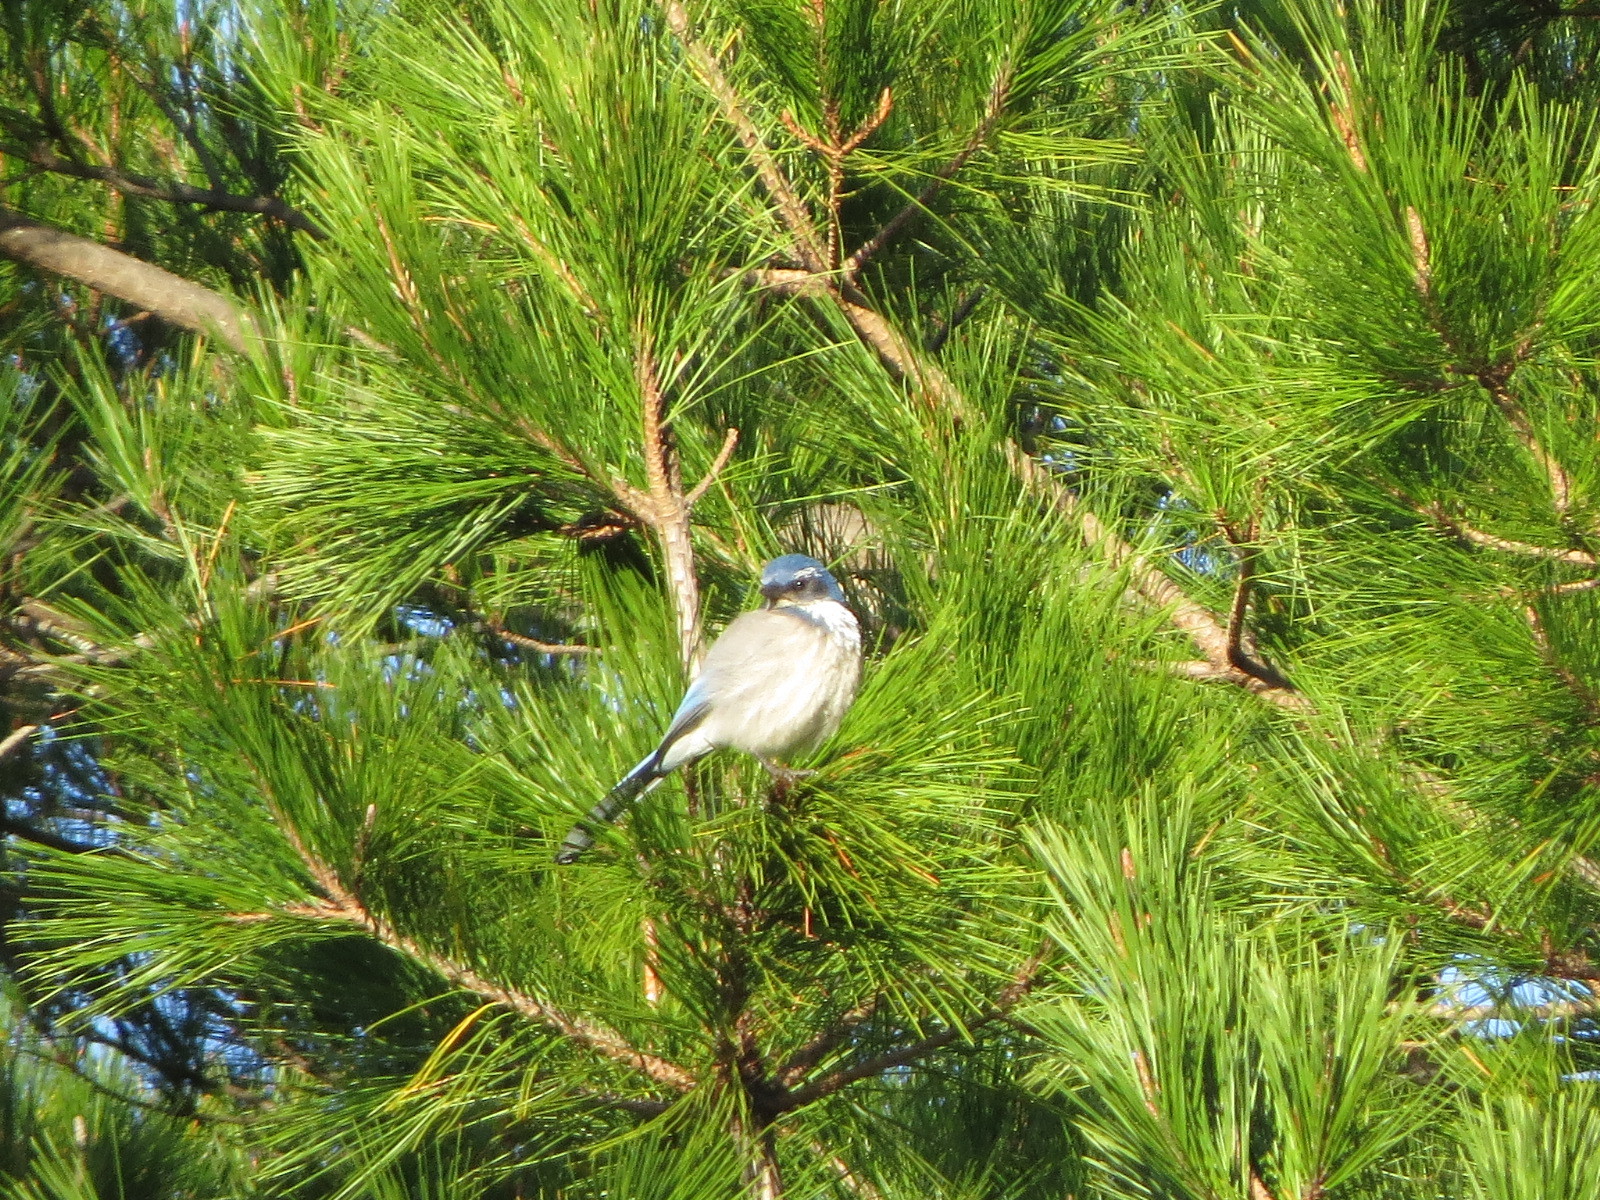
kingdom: Animalia
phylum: Chordata
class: Aves
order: Passeriformes
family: Corvidae
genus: Aphelocoma
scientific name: Aphelocoma californica
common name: California scrub-jay
